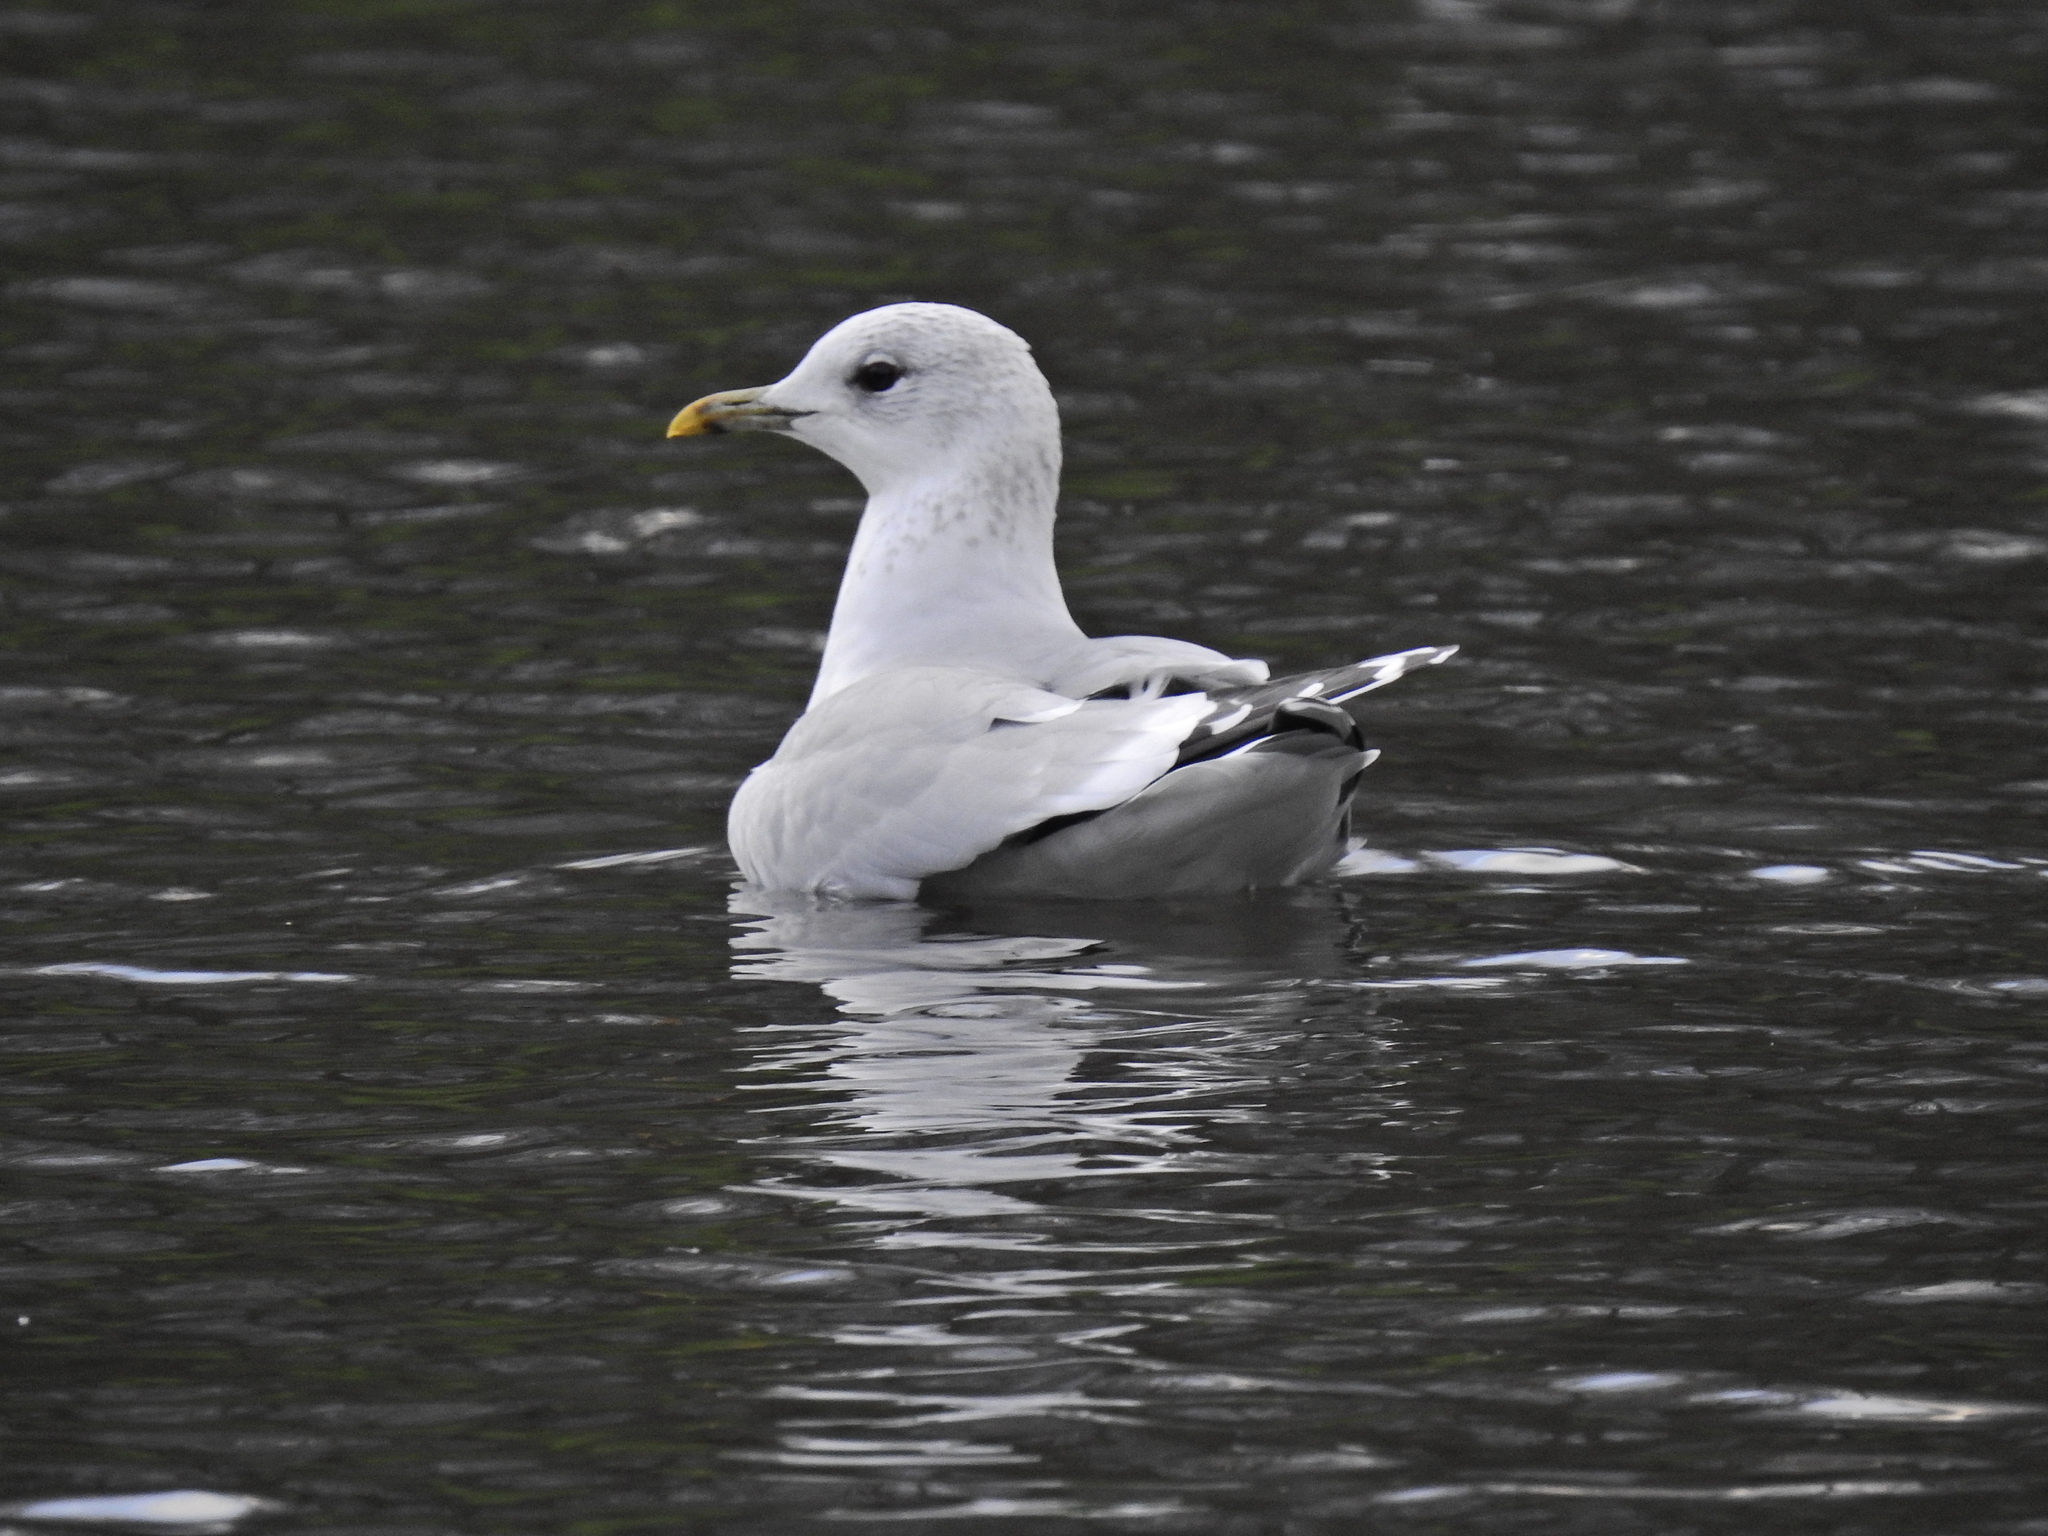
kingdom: Animalia
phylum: Chordata
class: Aves
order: Charadriiformes
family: Laridae
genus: Larus
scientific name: Larus canus
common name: Mew gull
